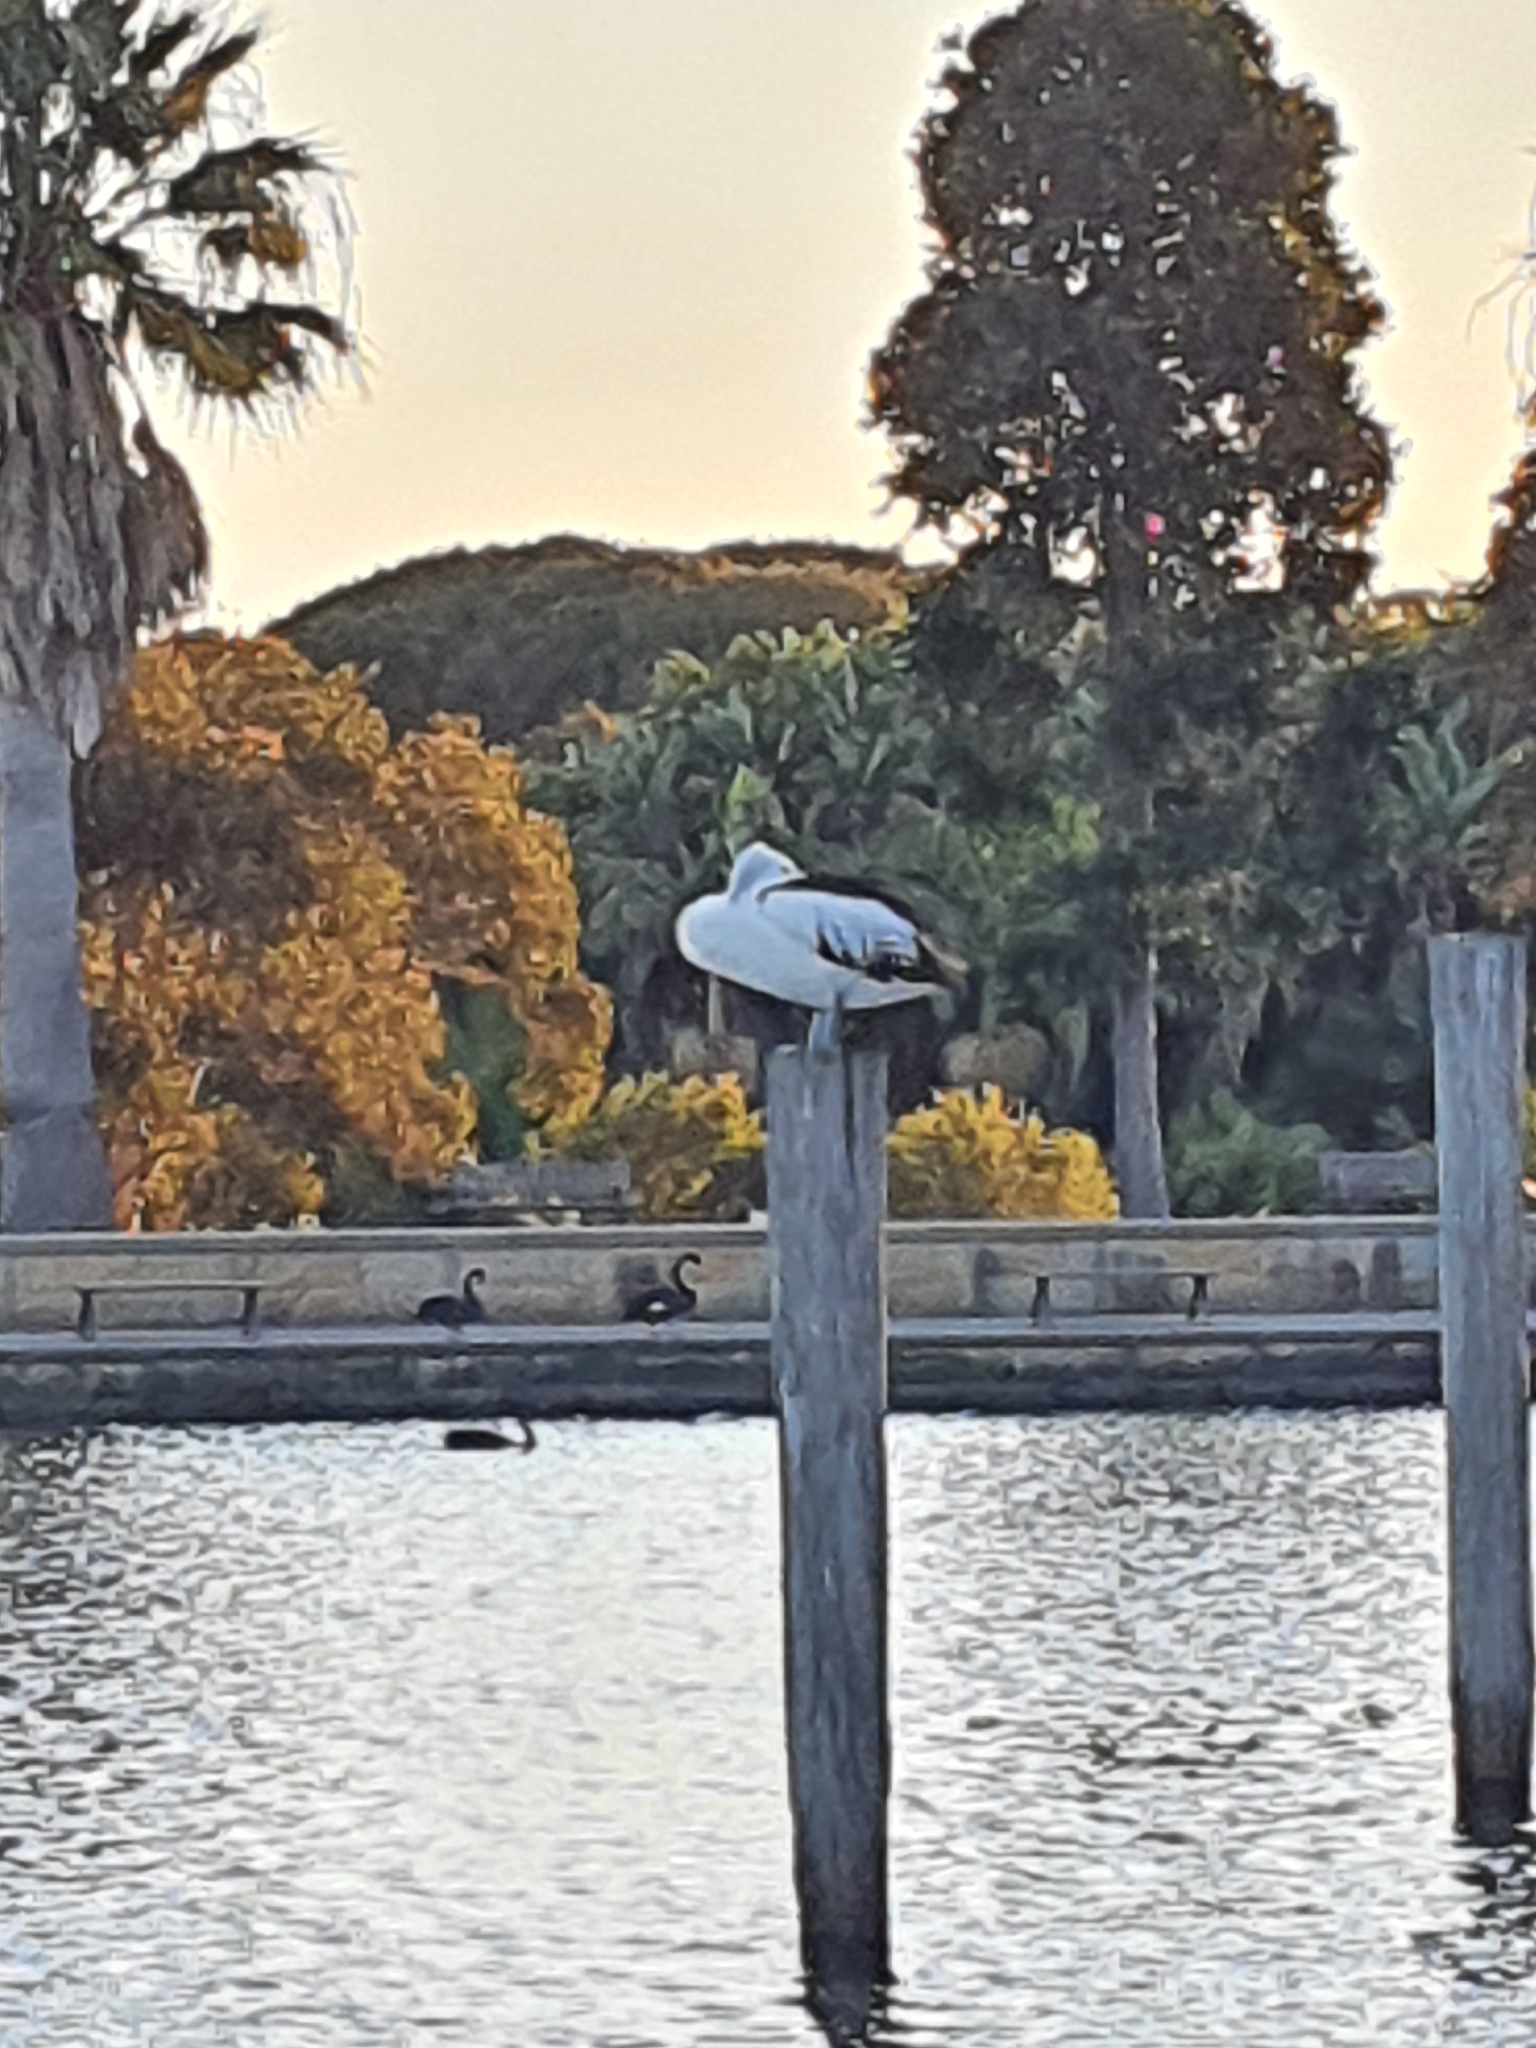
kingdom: Animalia
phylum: Chordata
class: Aves
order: Pelecaniformes
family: Pelecanidae
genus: Pelecanus
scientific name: Pelecanus conspicillatus
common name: Australian pelican
